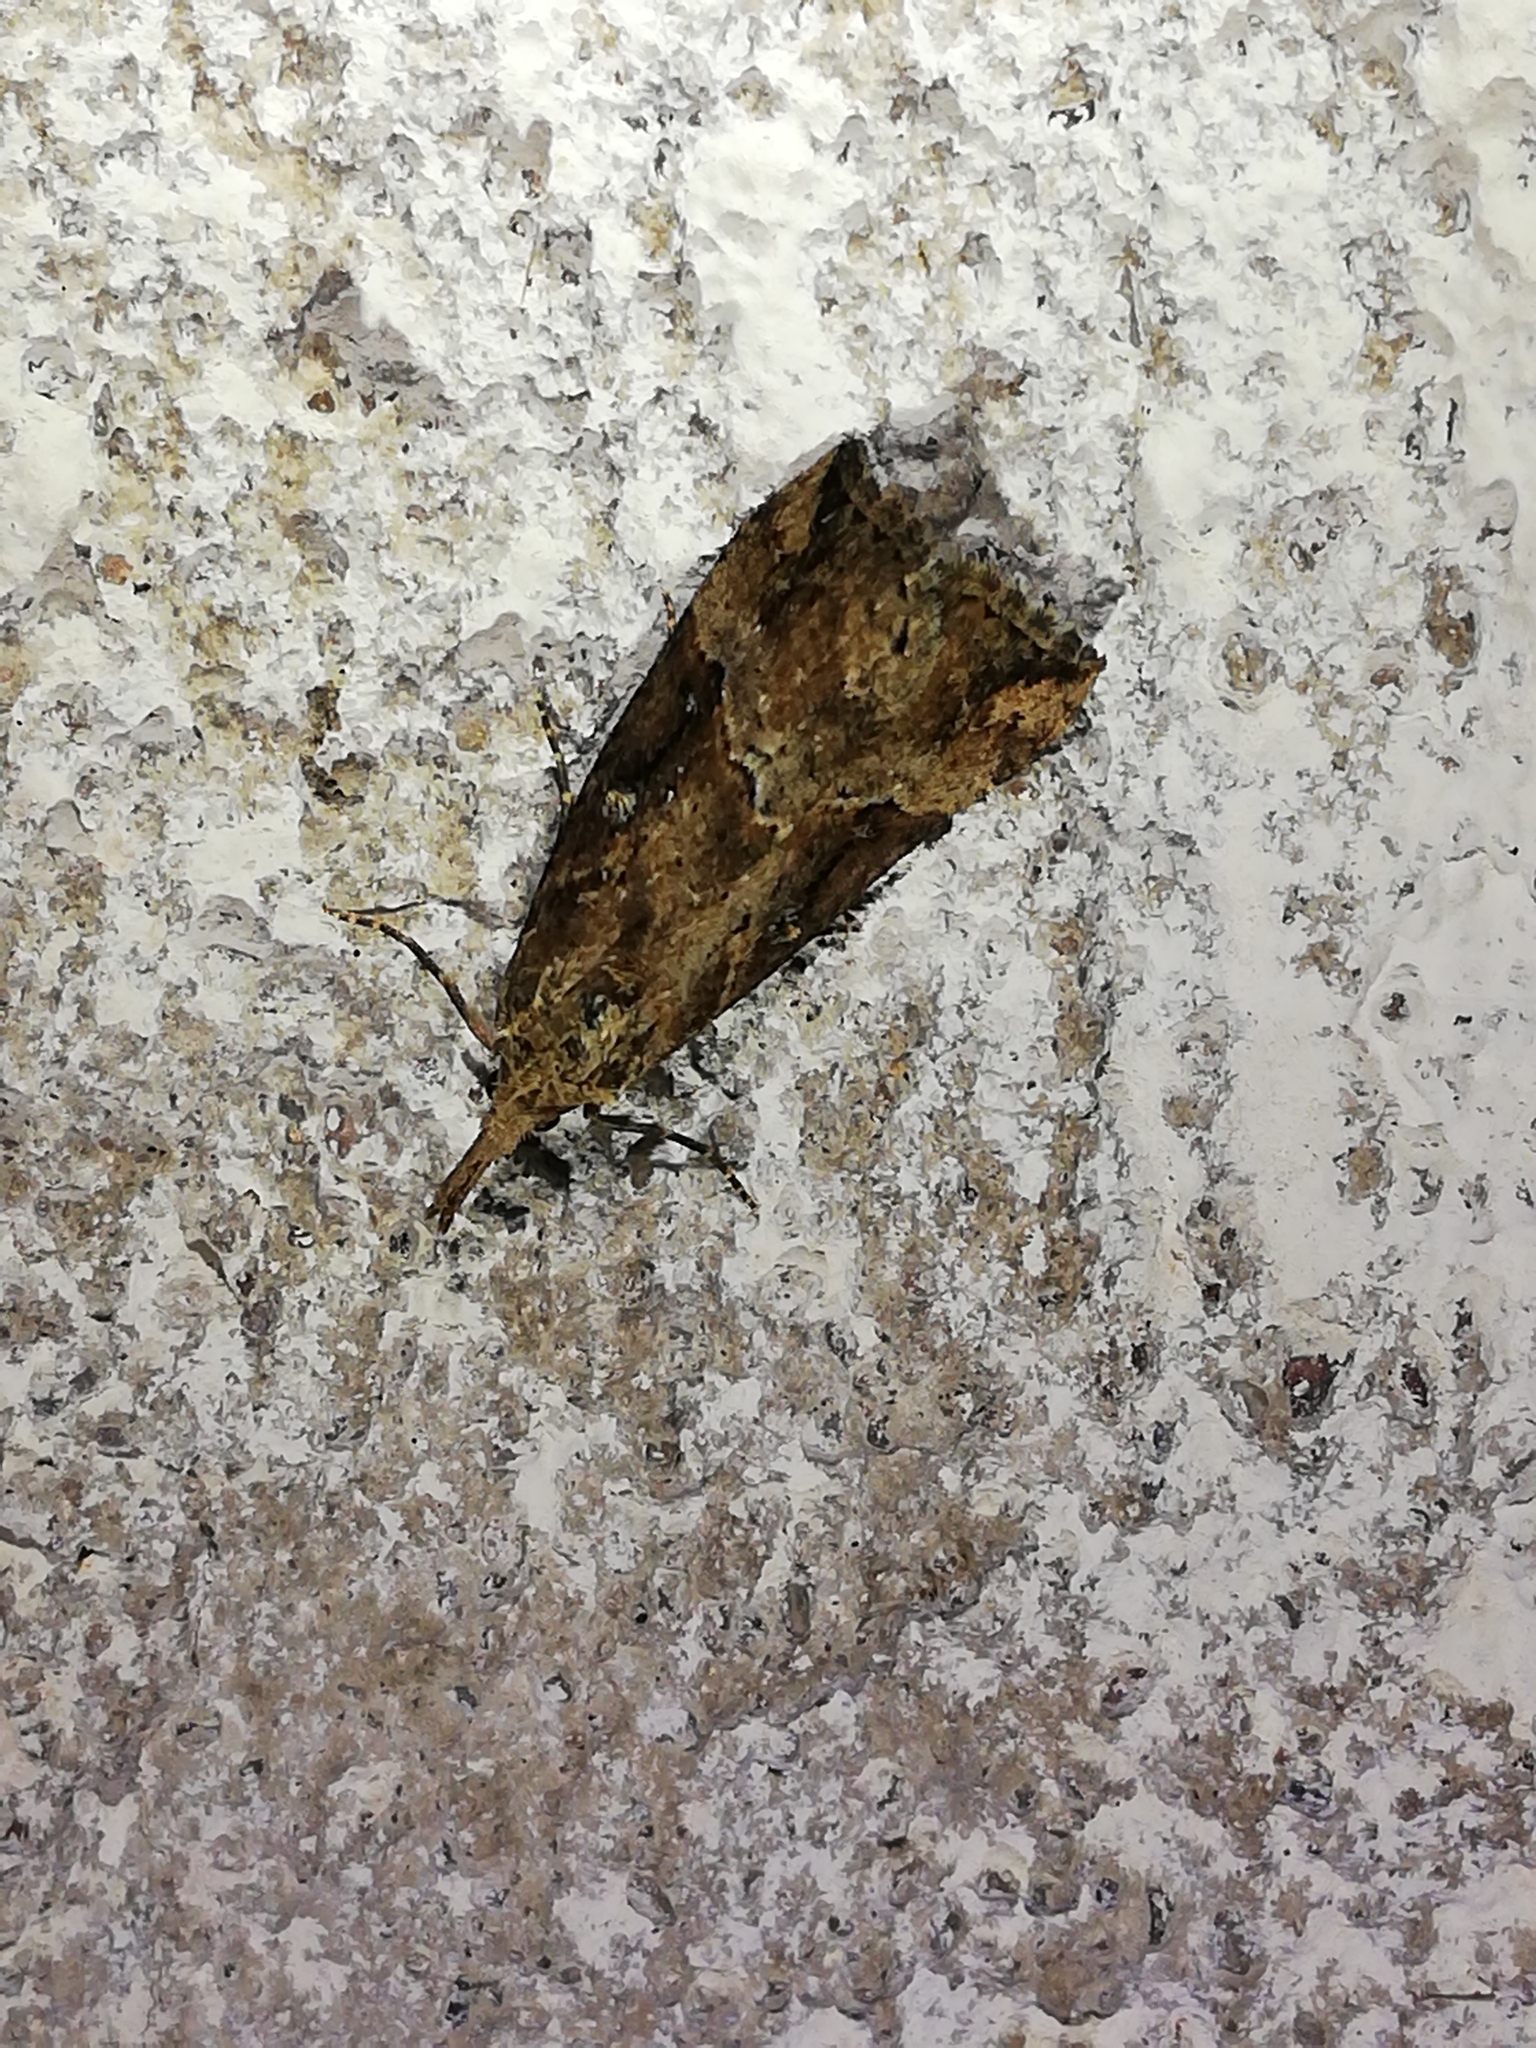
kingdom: Animalia
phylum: Arthropoda
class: Insecta
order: Lepidoptera
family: Erebidae
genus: Hypena
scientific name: Hypena rostralis
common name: Buttoned snout
